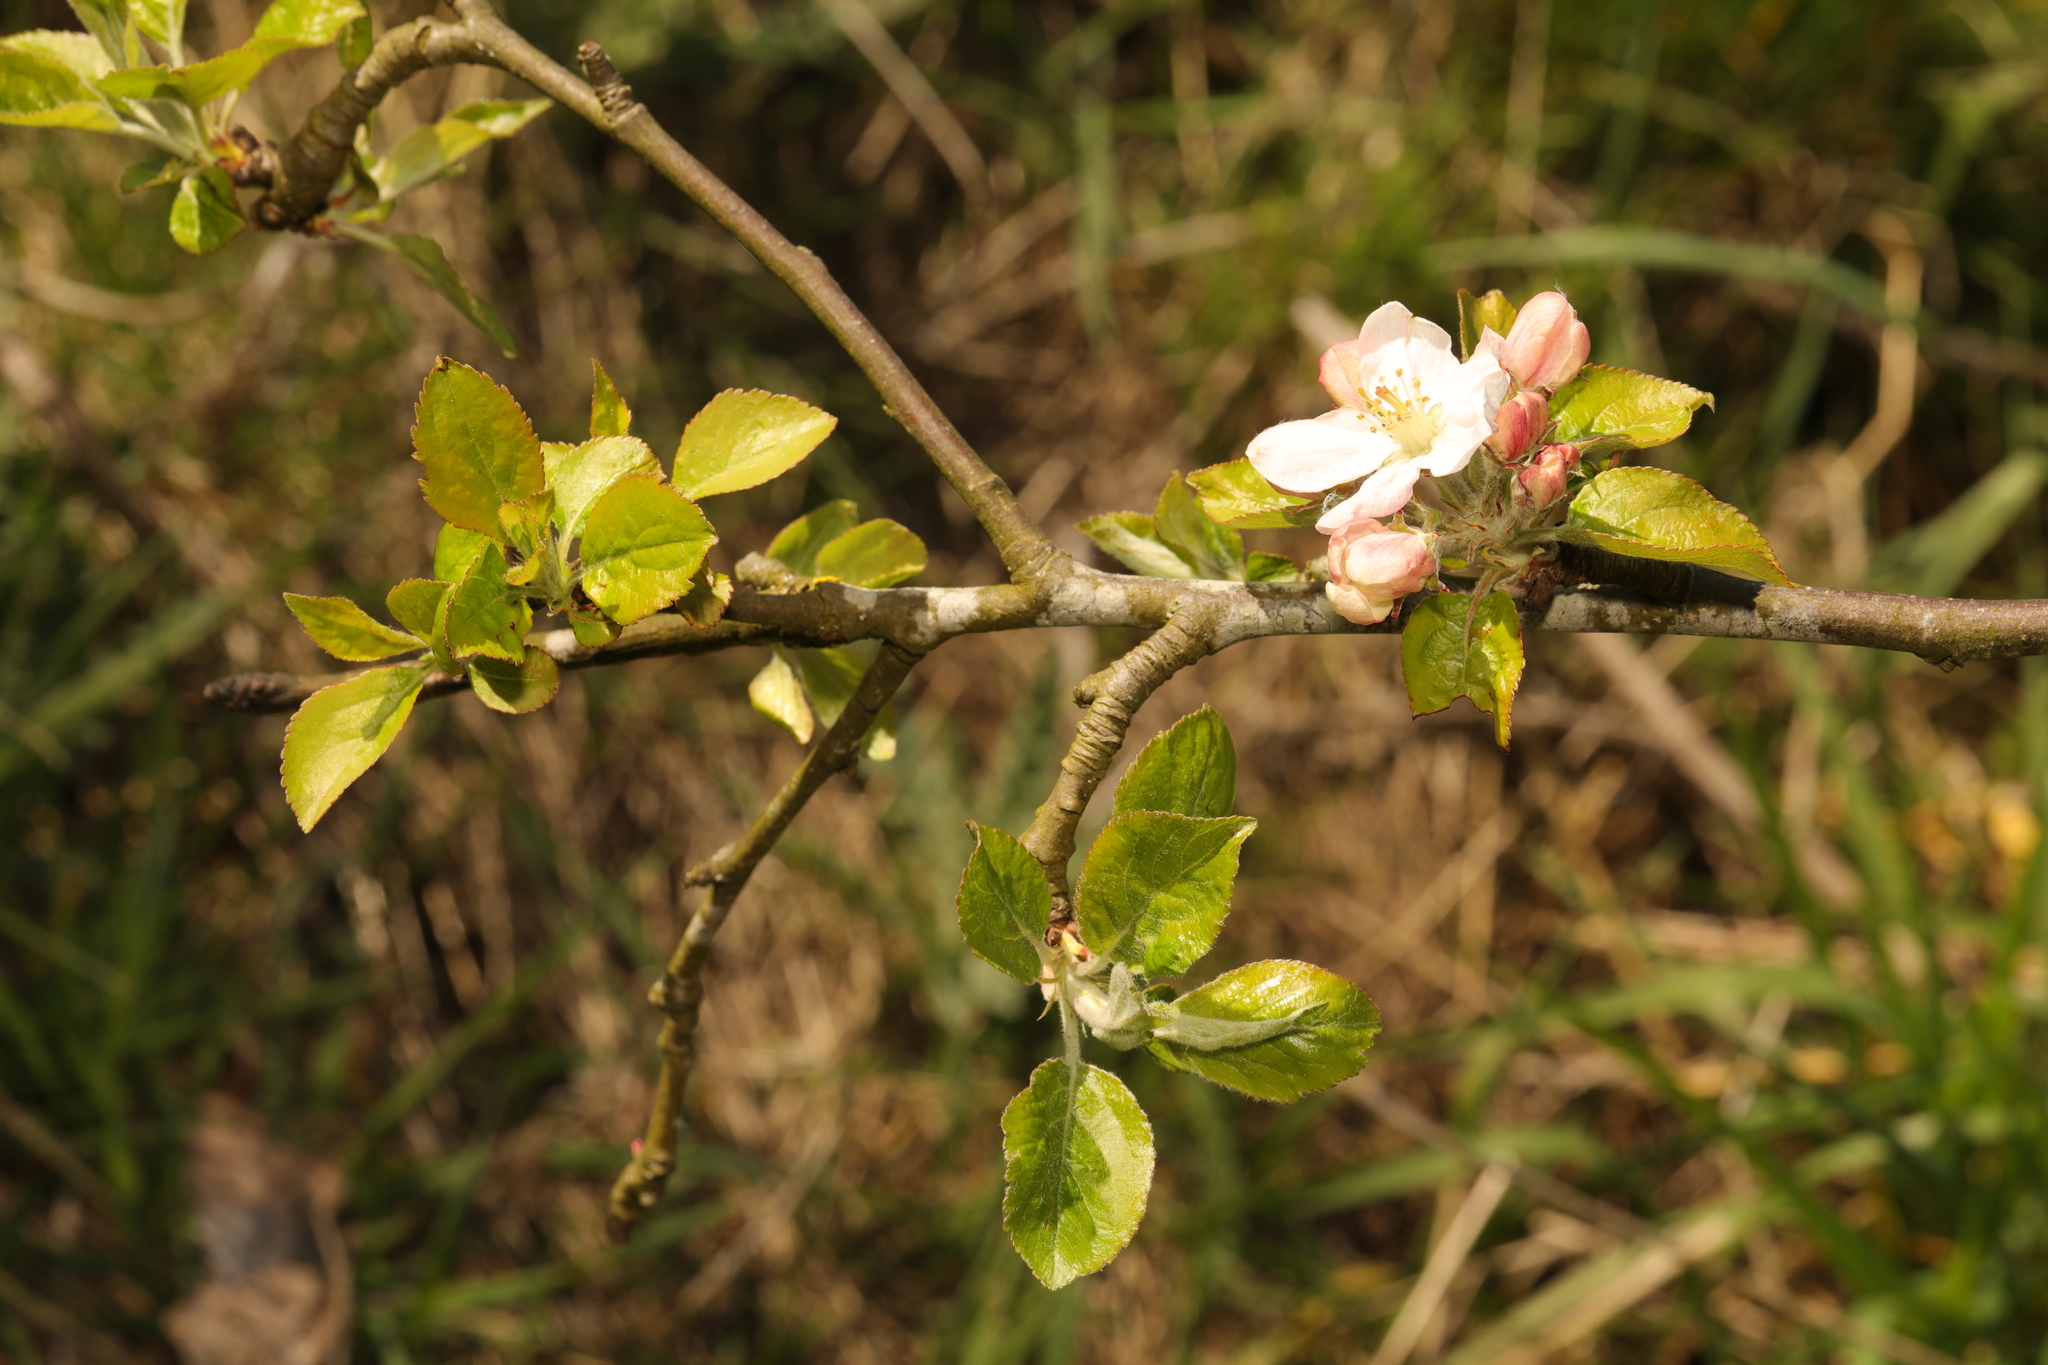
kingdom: Plantae
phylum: Tracheophyta
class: Magnoliopsida
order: Rosales
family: Rosaceae
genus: Malus
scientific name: Malus domestica
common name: Apple
